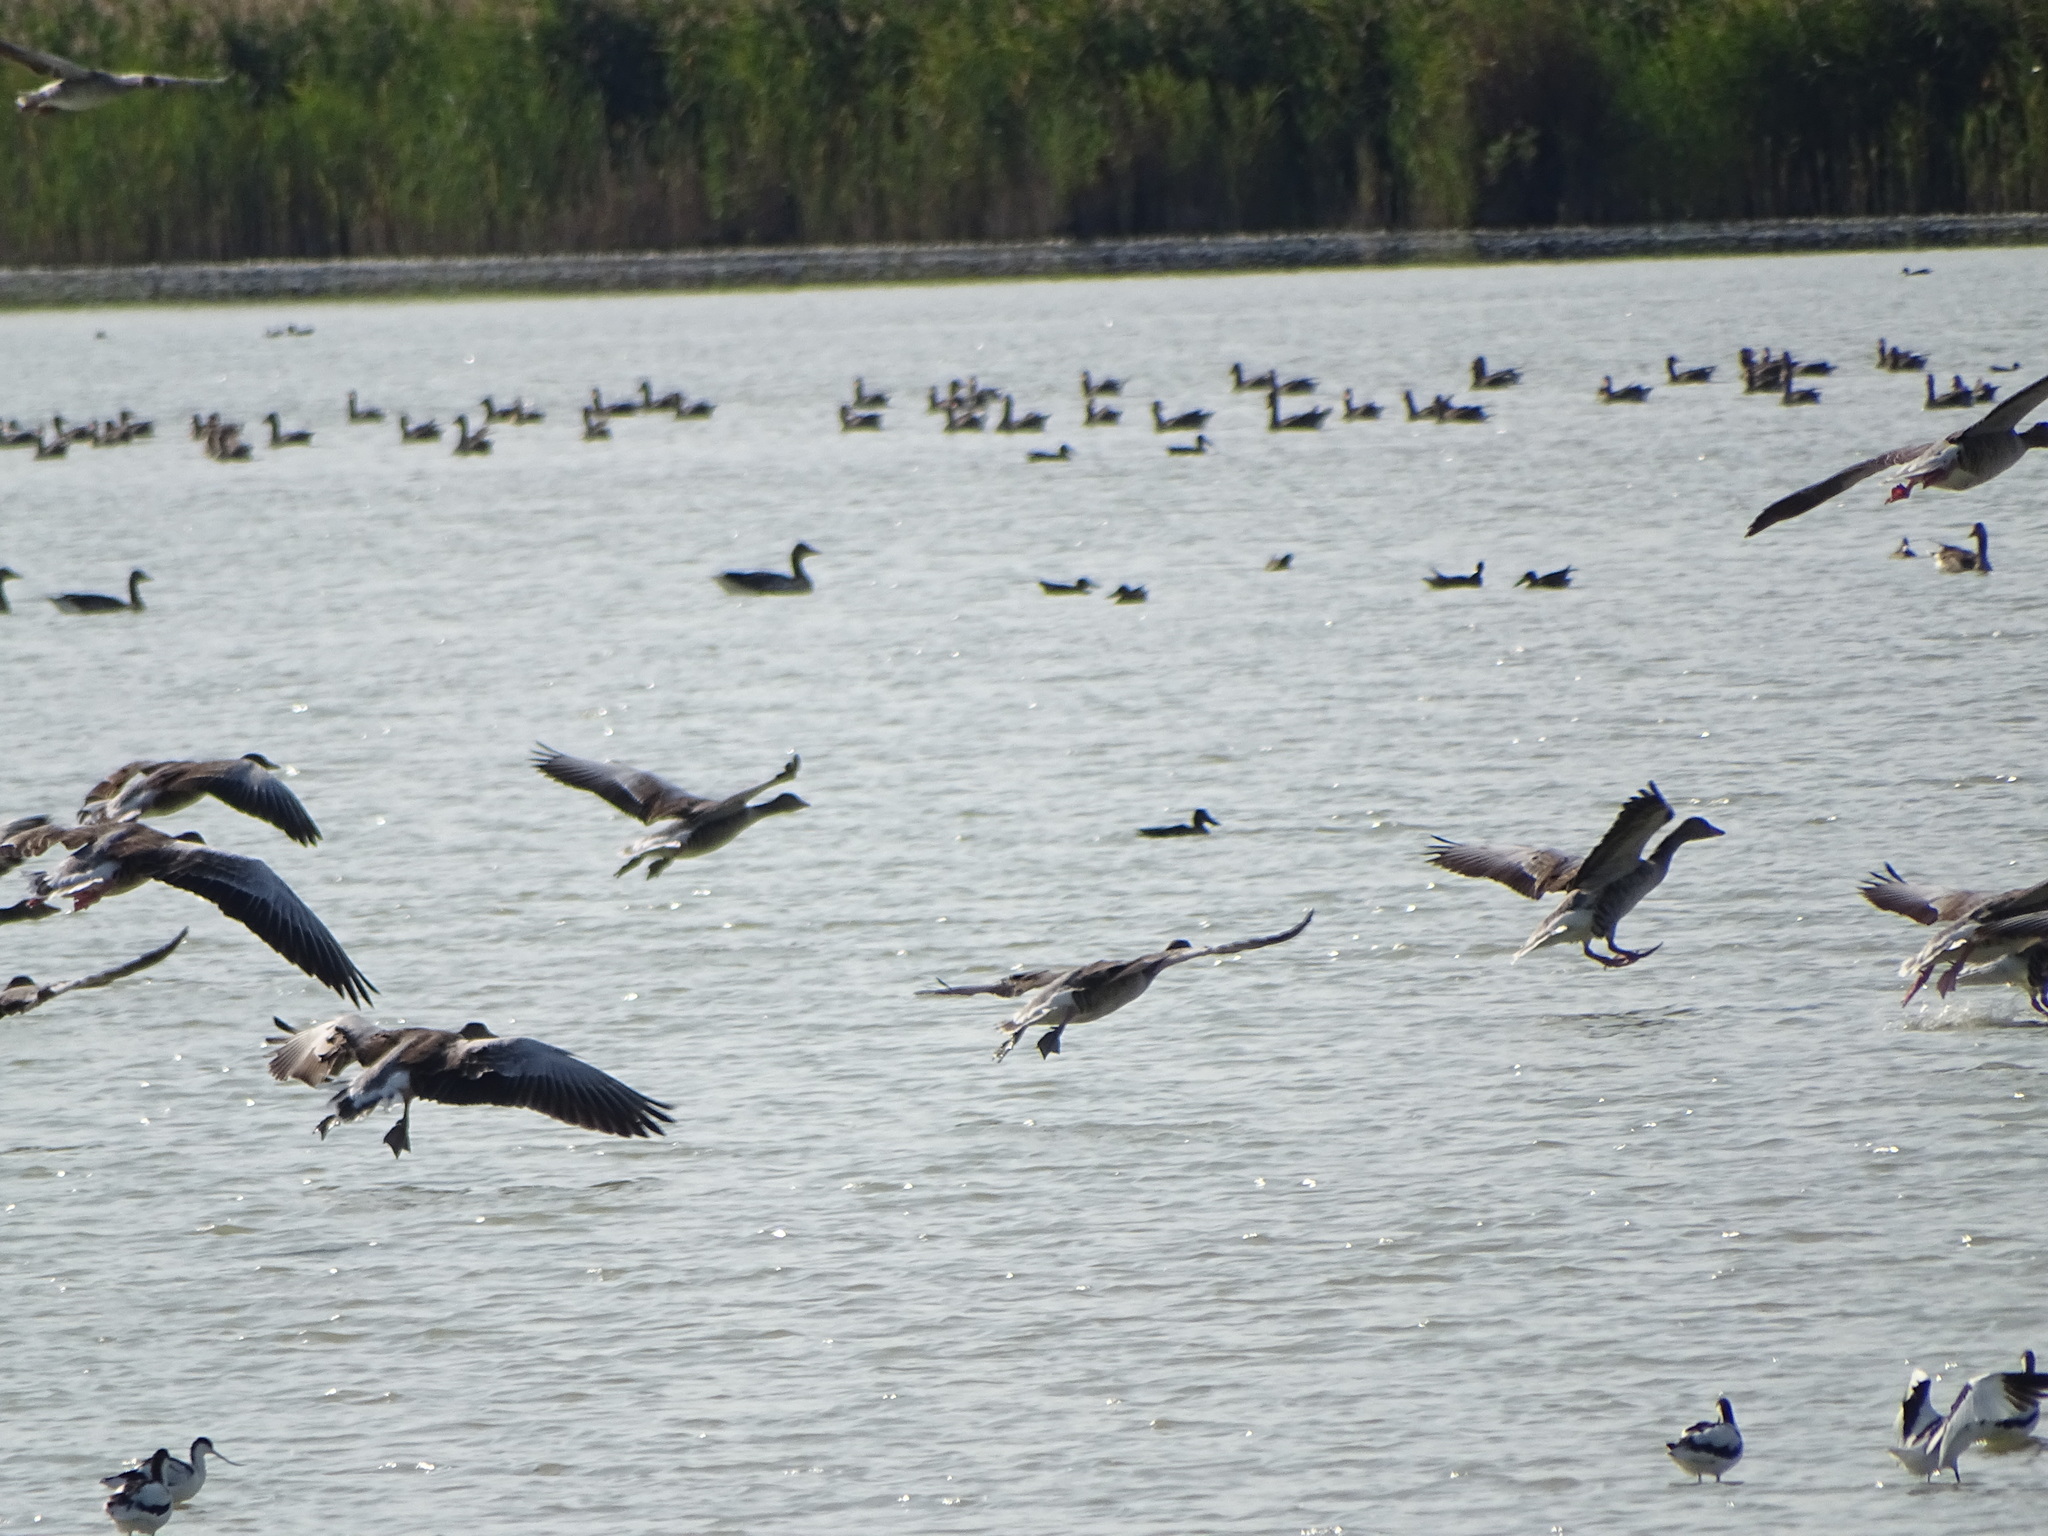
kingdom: Animalia
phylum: Chordata
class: Aves
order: Anseriformes
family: Anatidae
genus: Anser
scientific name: Anser anser
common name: Greylag goose
